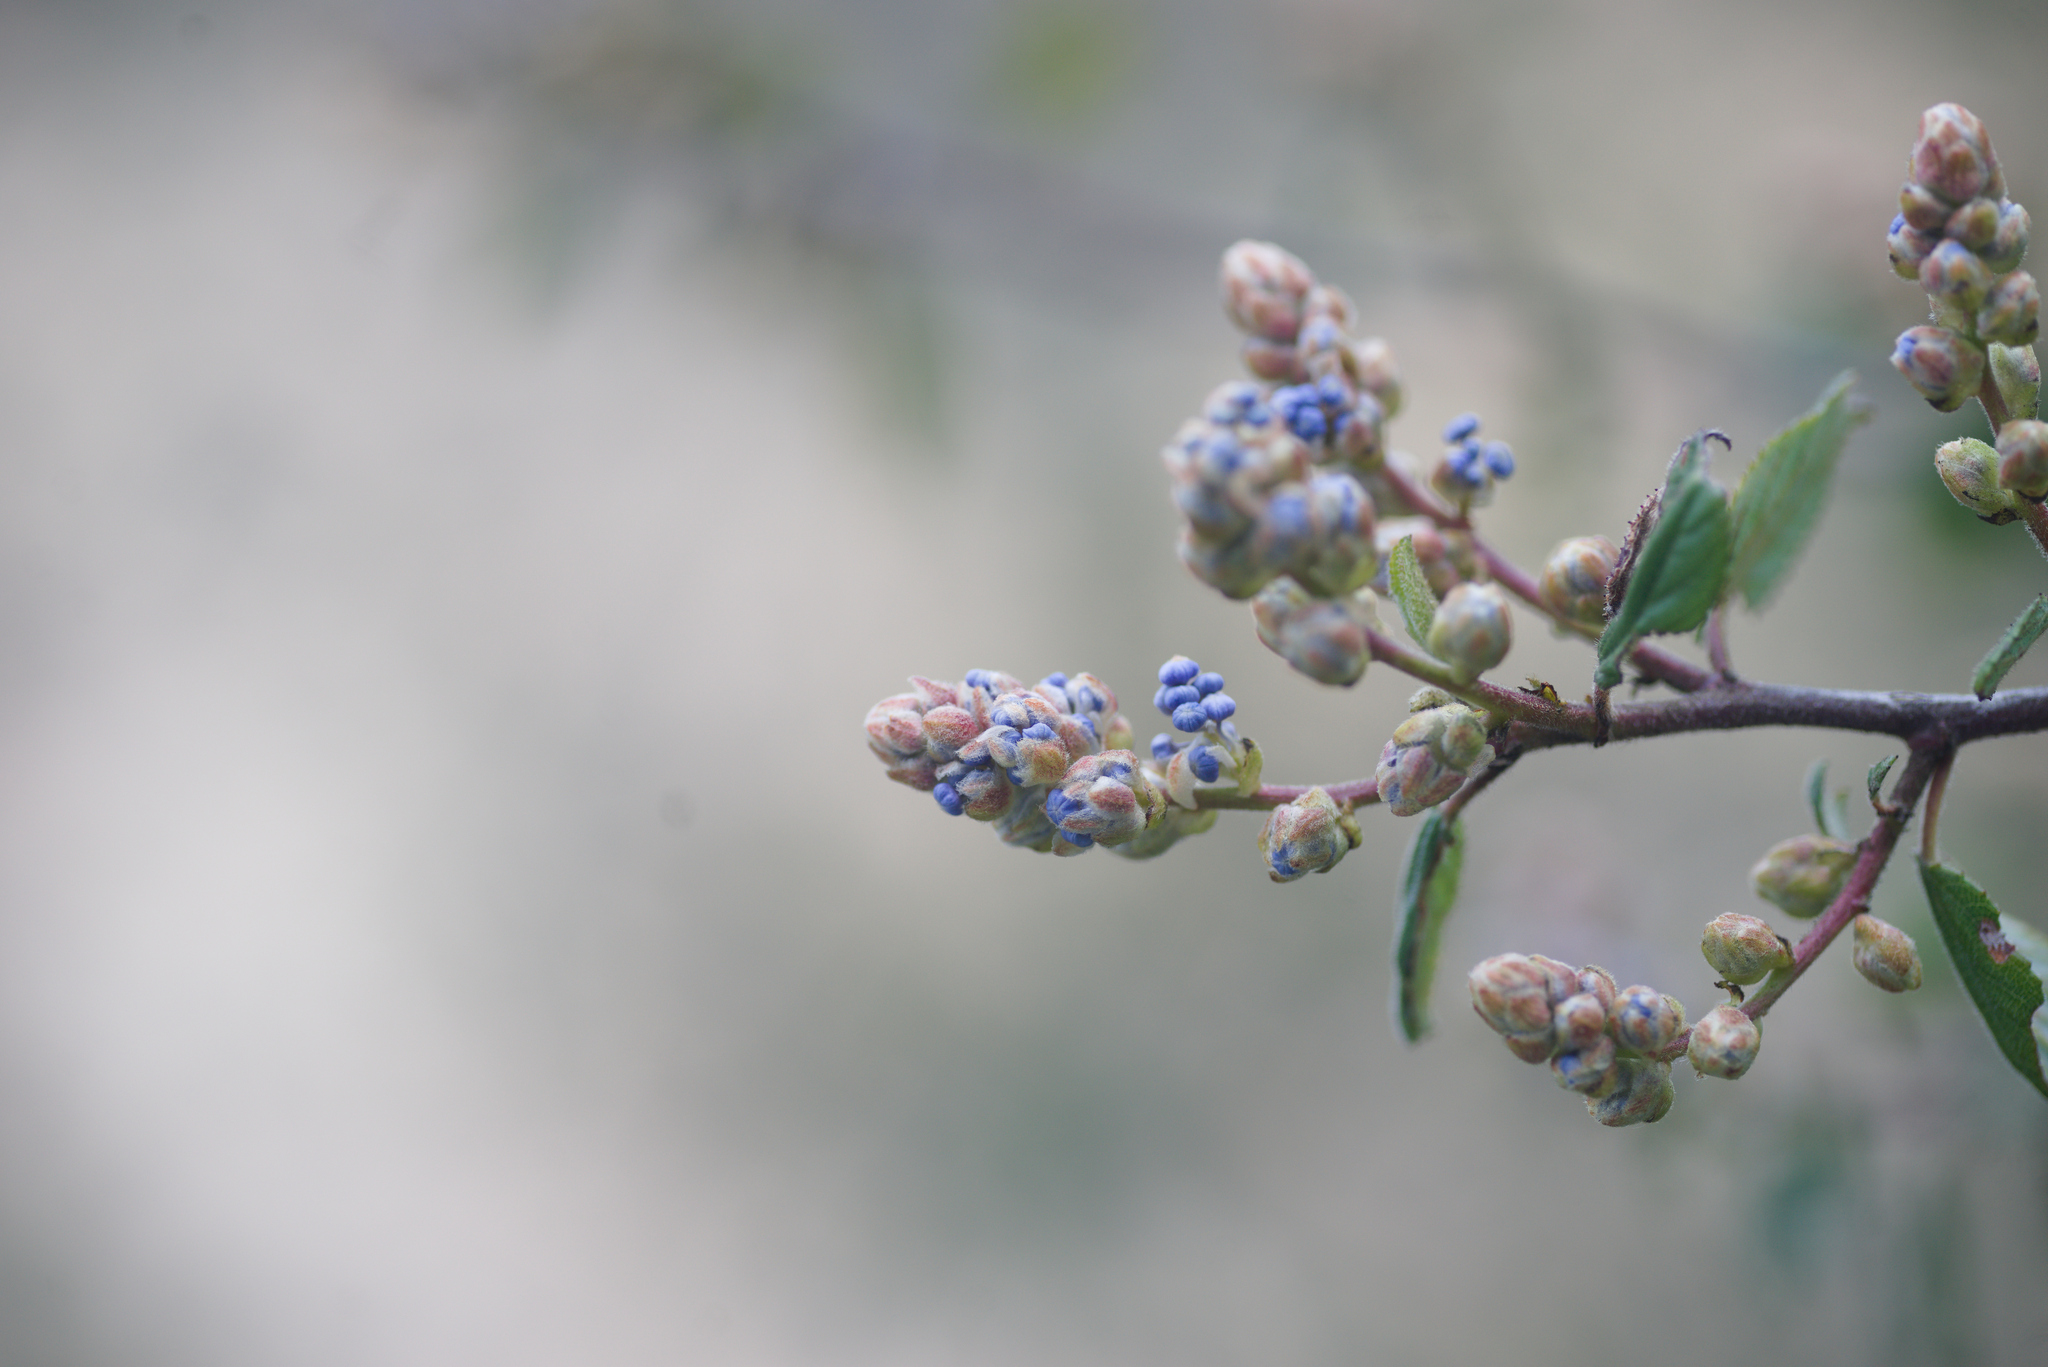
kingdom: Plantae
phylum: Tracheophyta
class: Magnoliopsida
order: Rosales
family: Rhamnaceae
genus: Ceanothus
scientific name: Ceanothus oliganthus
